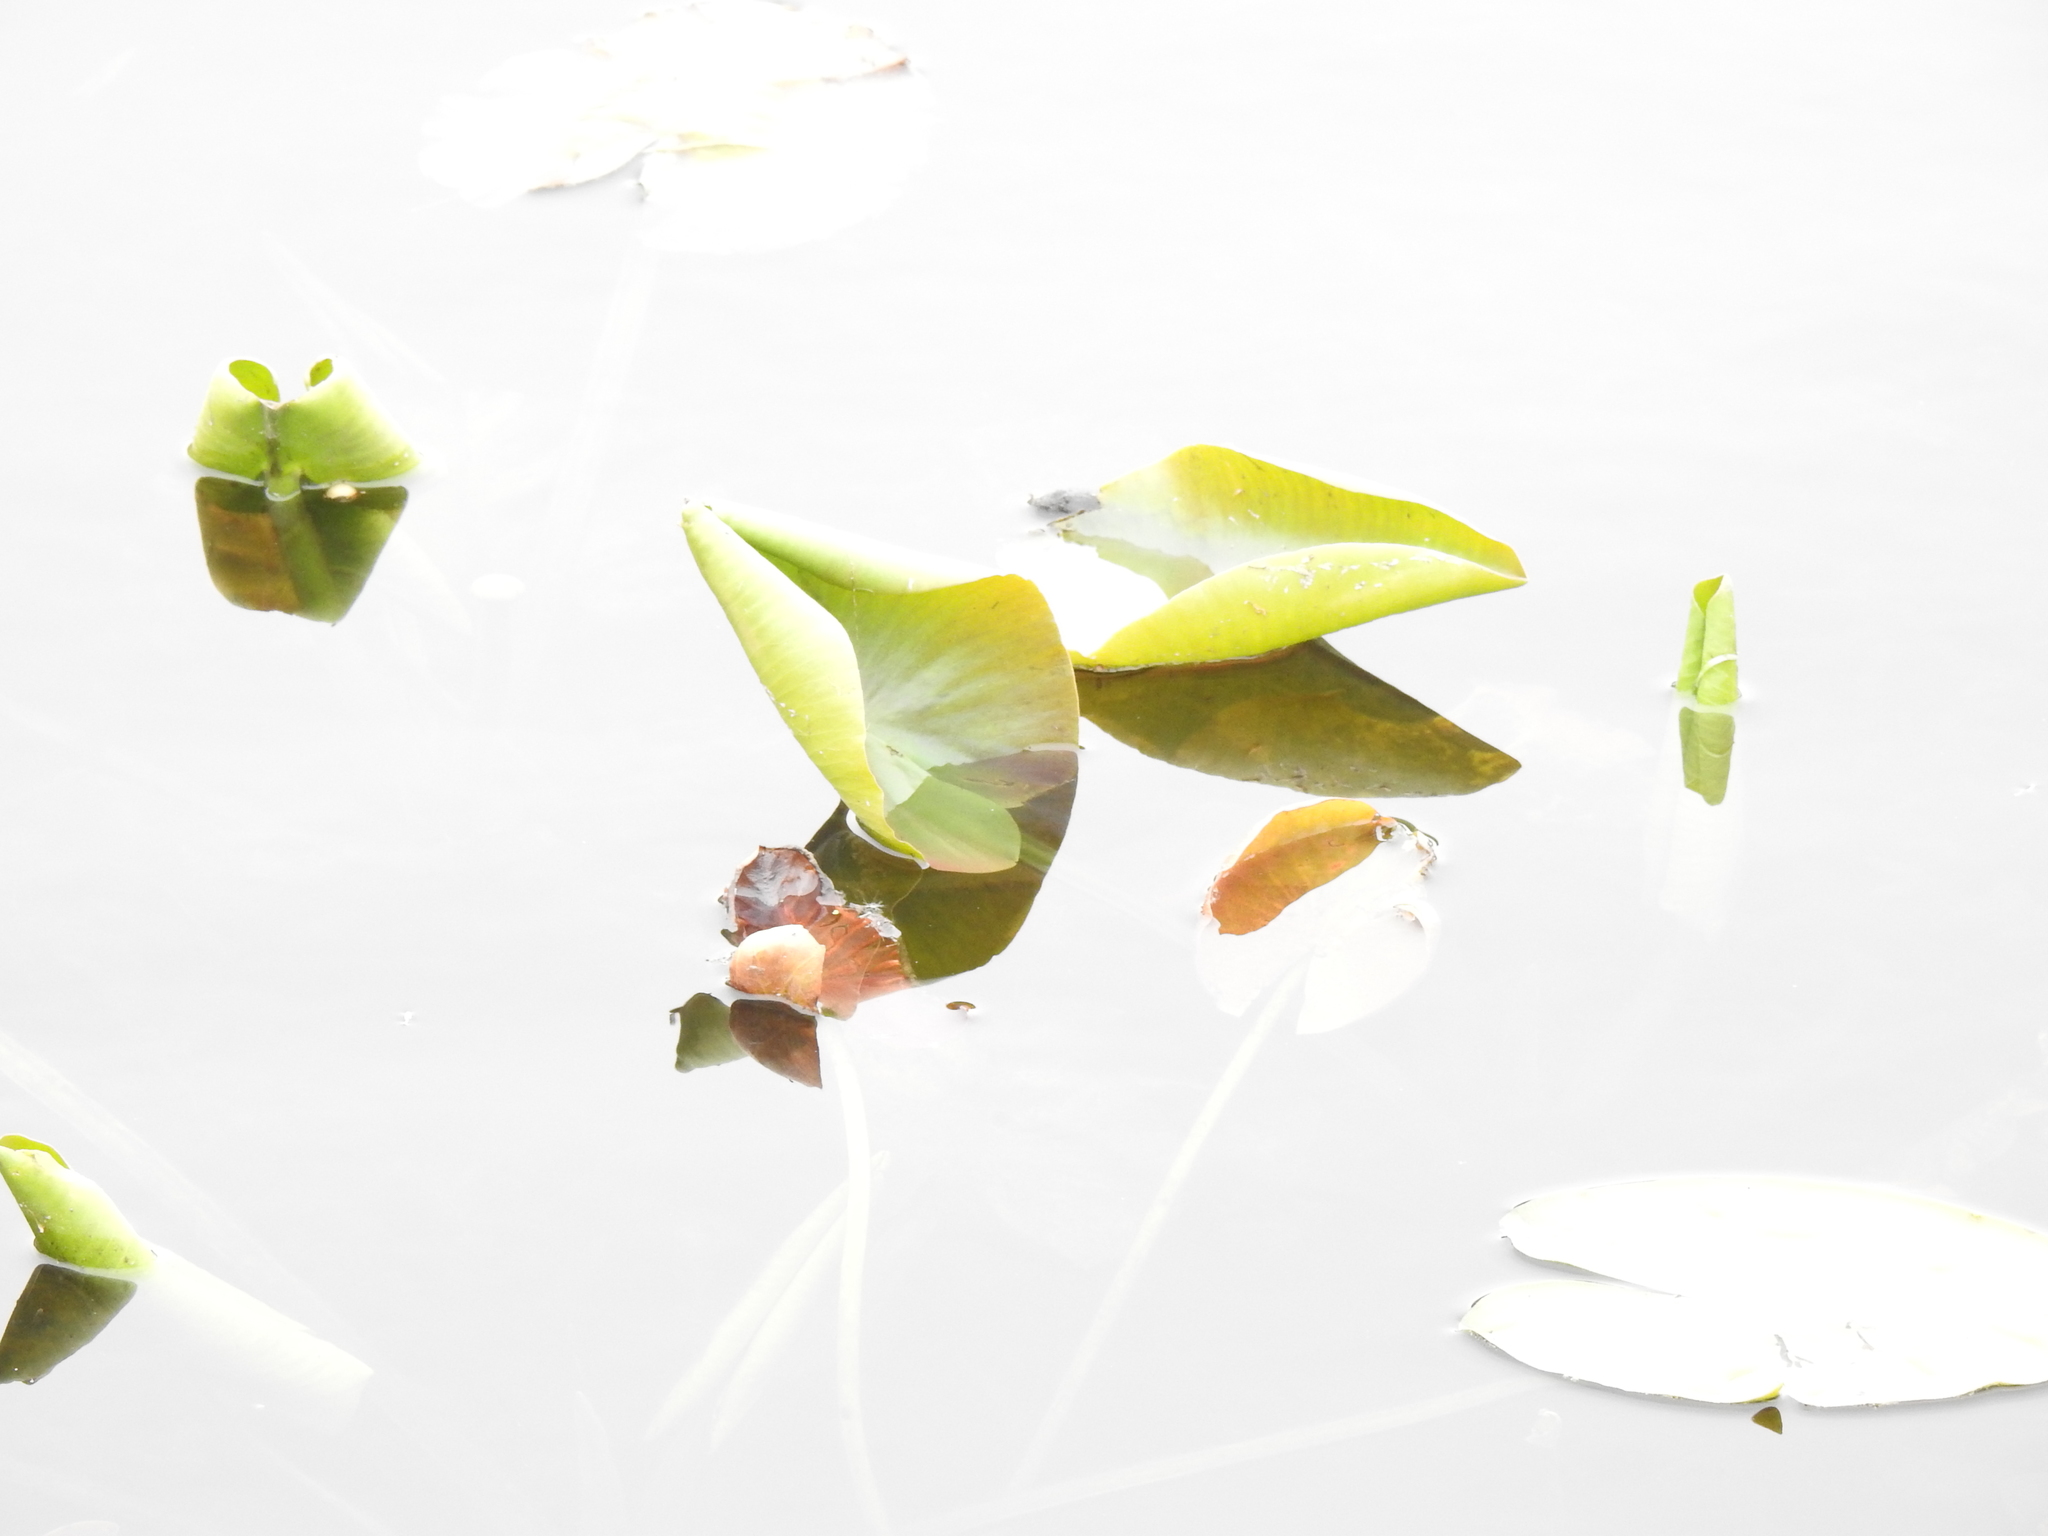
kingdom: Plantae
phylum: Tracheophyta
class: Magnoliopsida
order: Nymphaeales
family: Nymphaeaceae
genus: Nuphar
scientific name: Nuphar variegata
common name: Beaver-root
